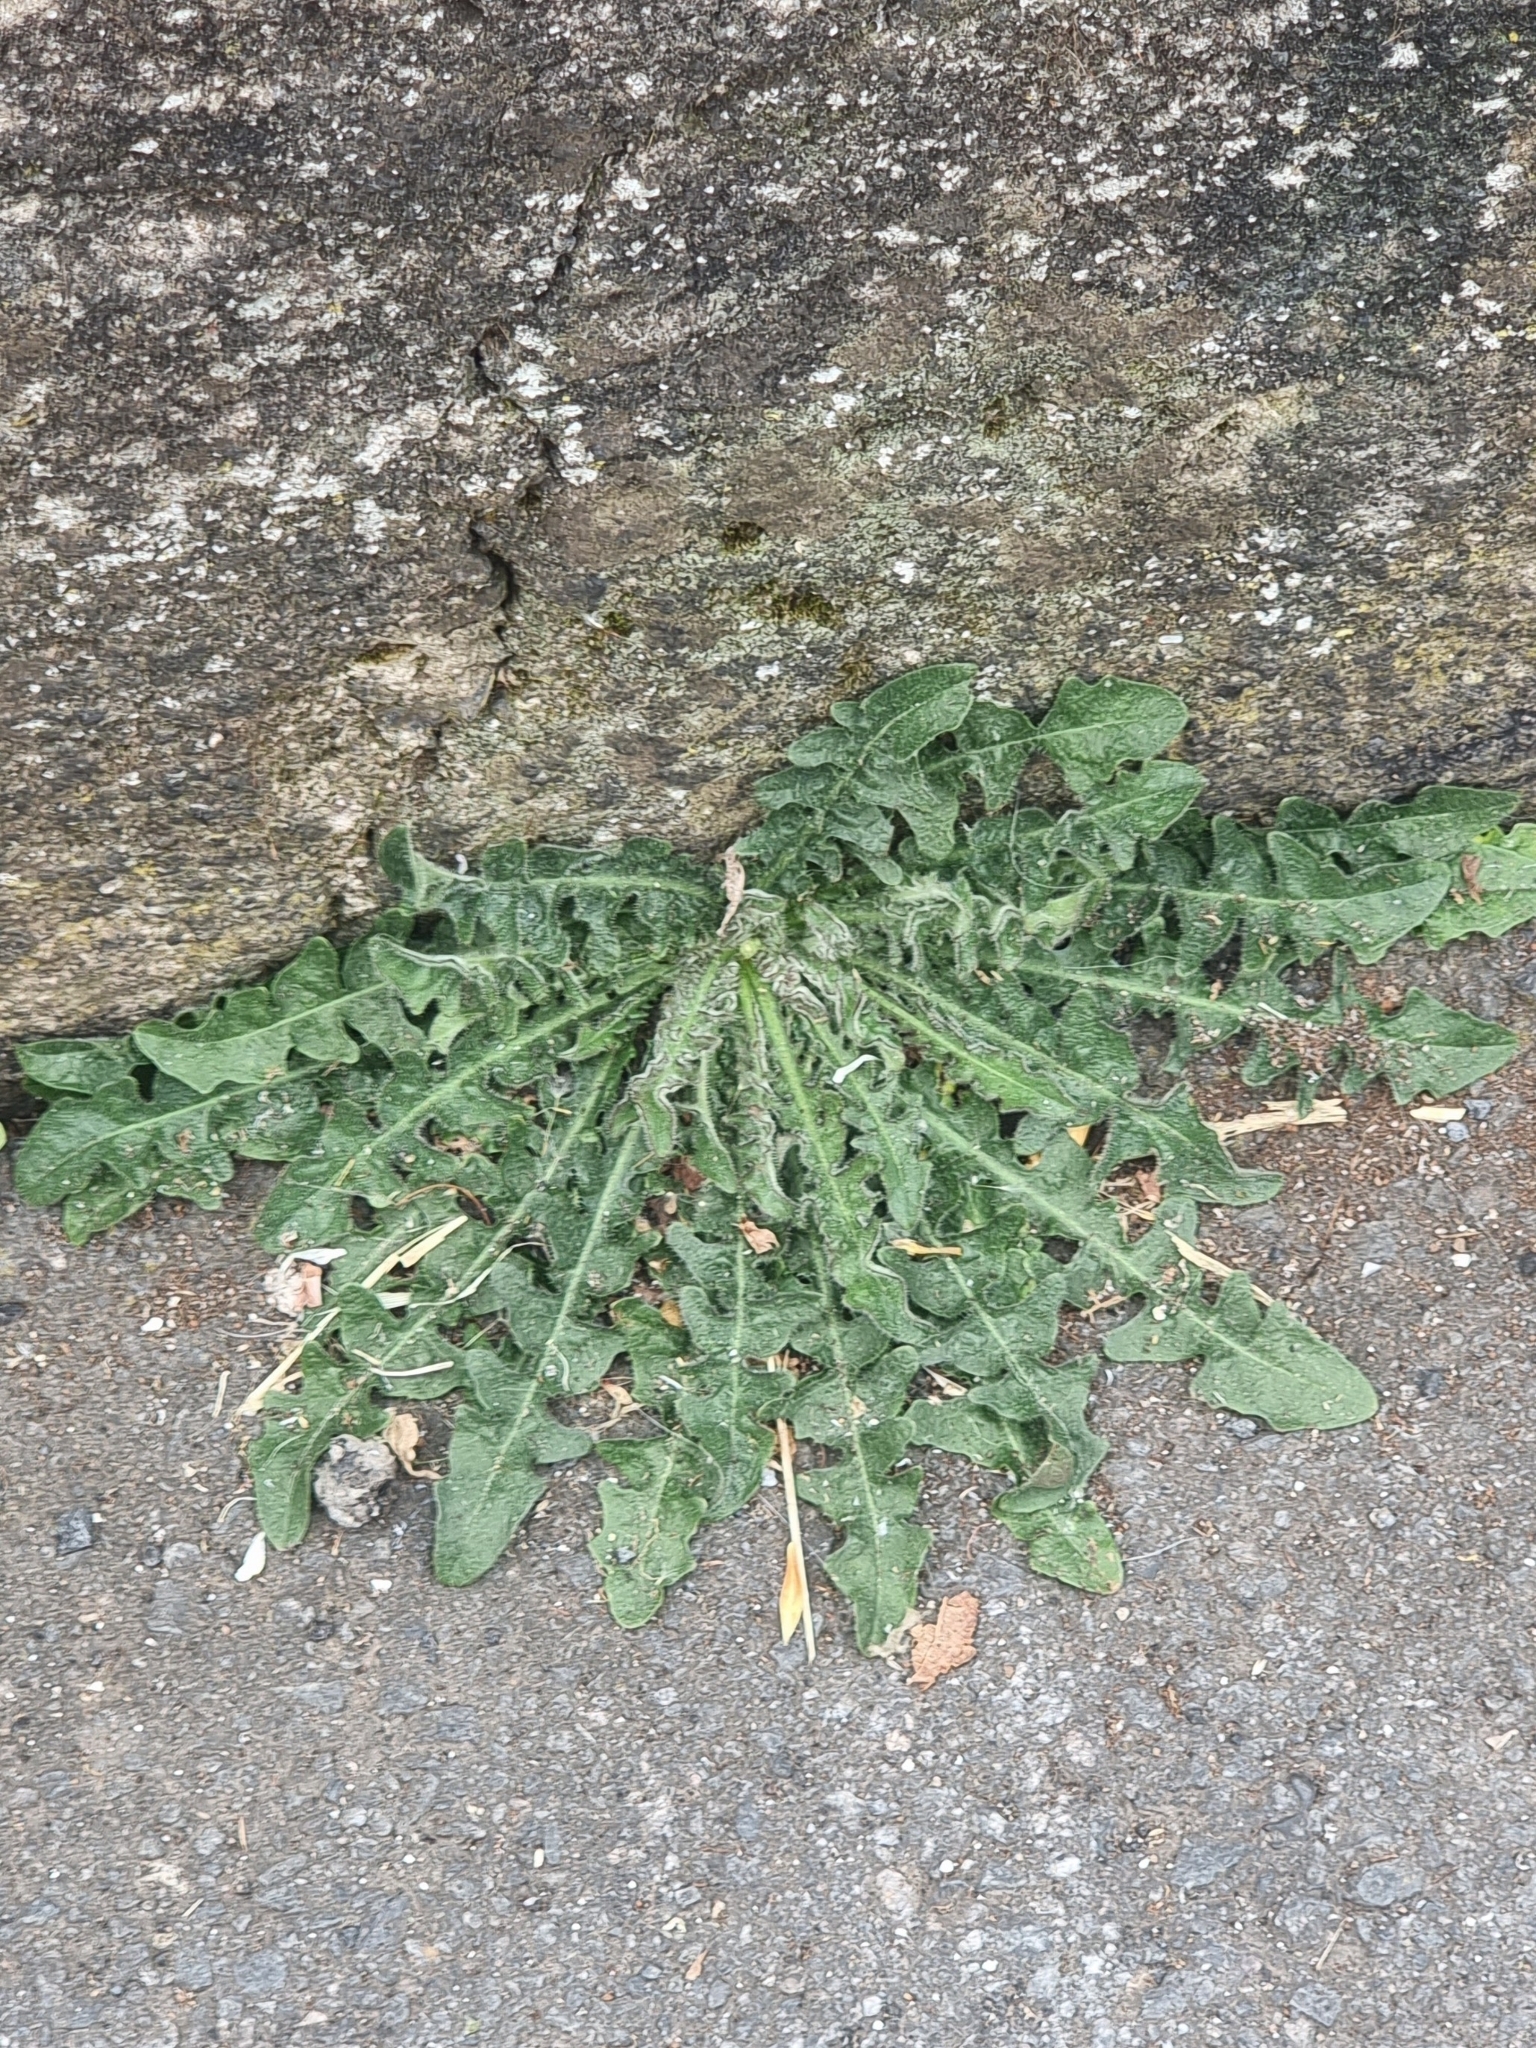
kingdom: Plantae
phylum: Tracheophyta
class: Magnoliopsida
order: Asterales
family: Asteraceae
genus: Hypochaeris
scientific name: Hypochaeris radicata
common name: Flatweed
